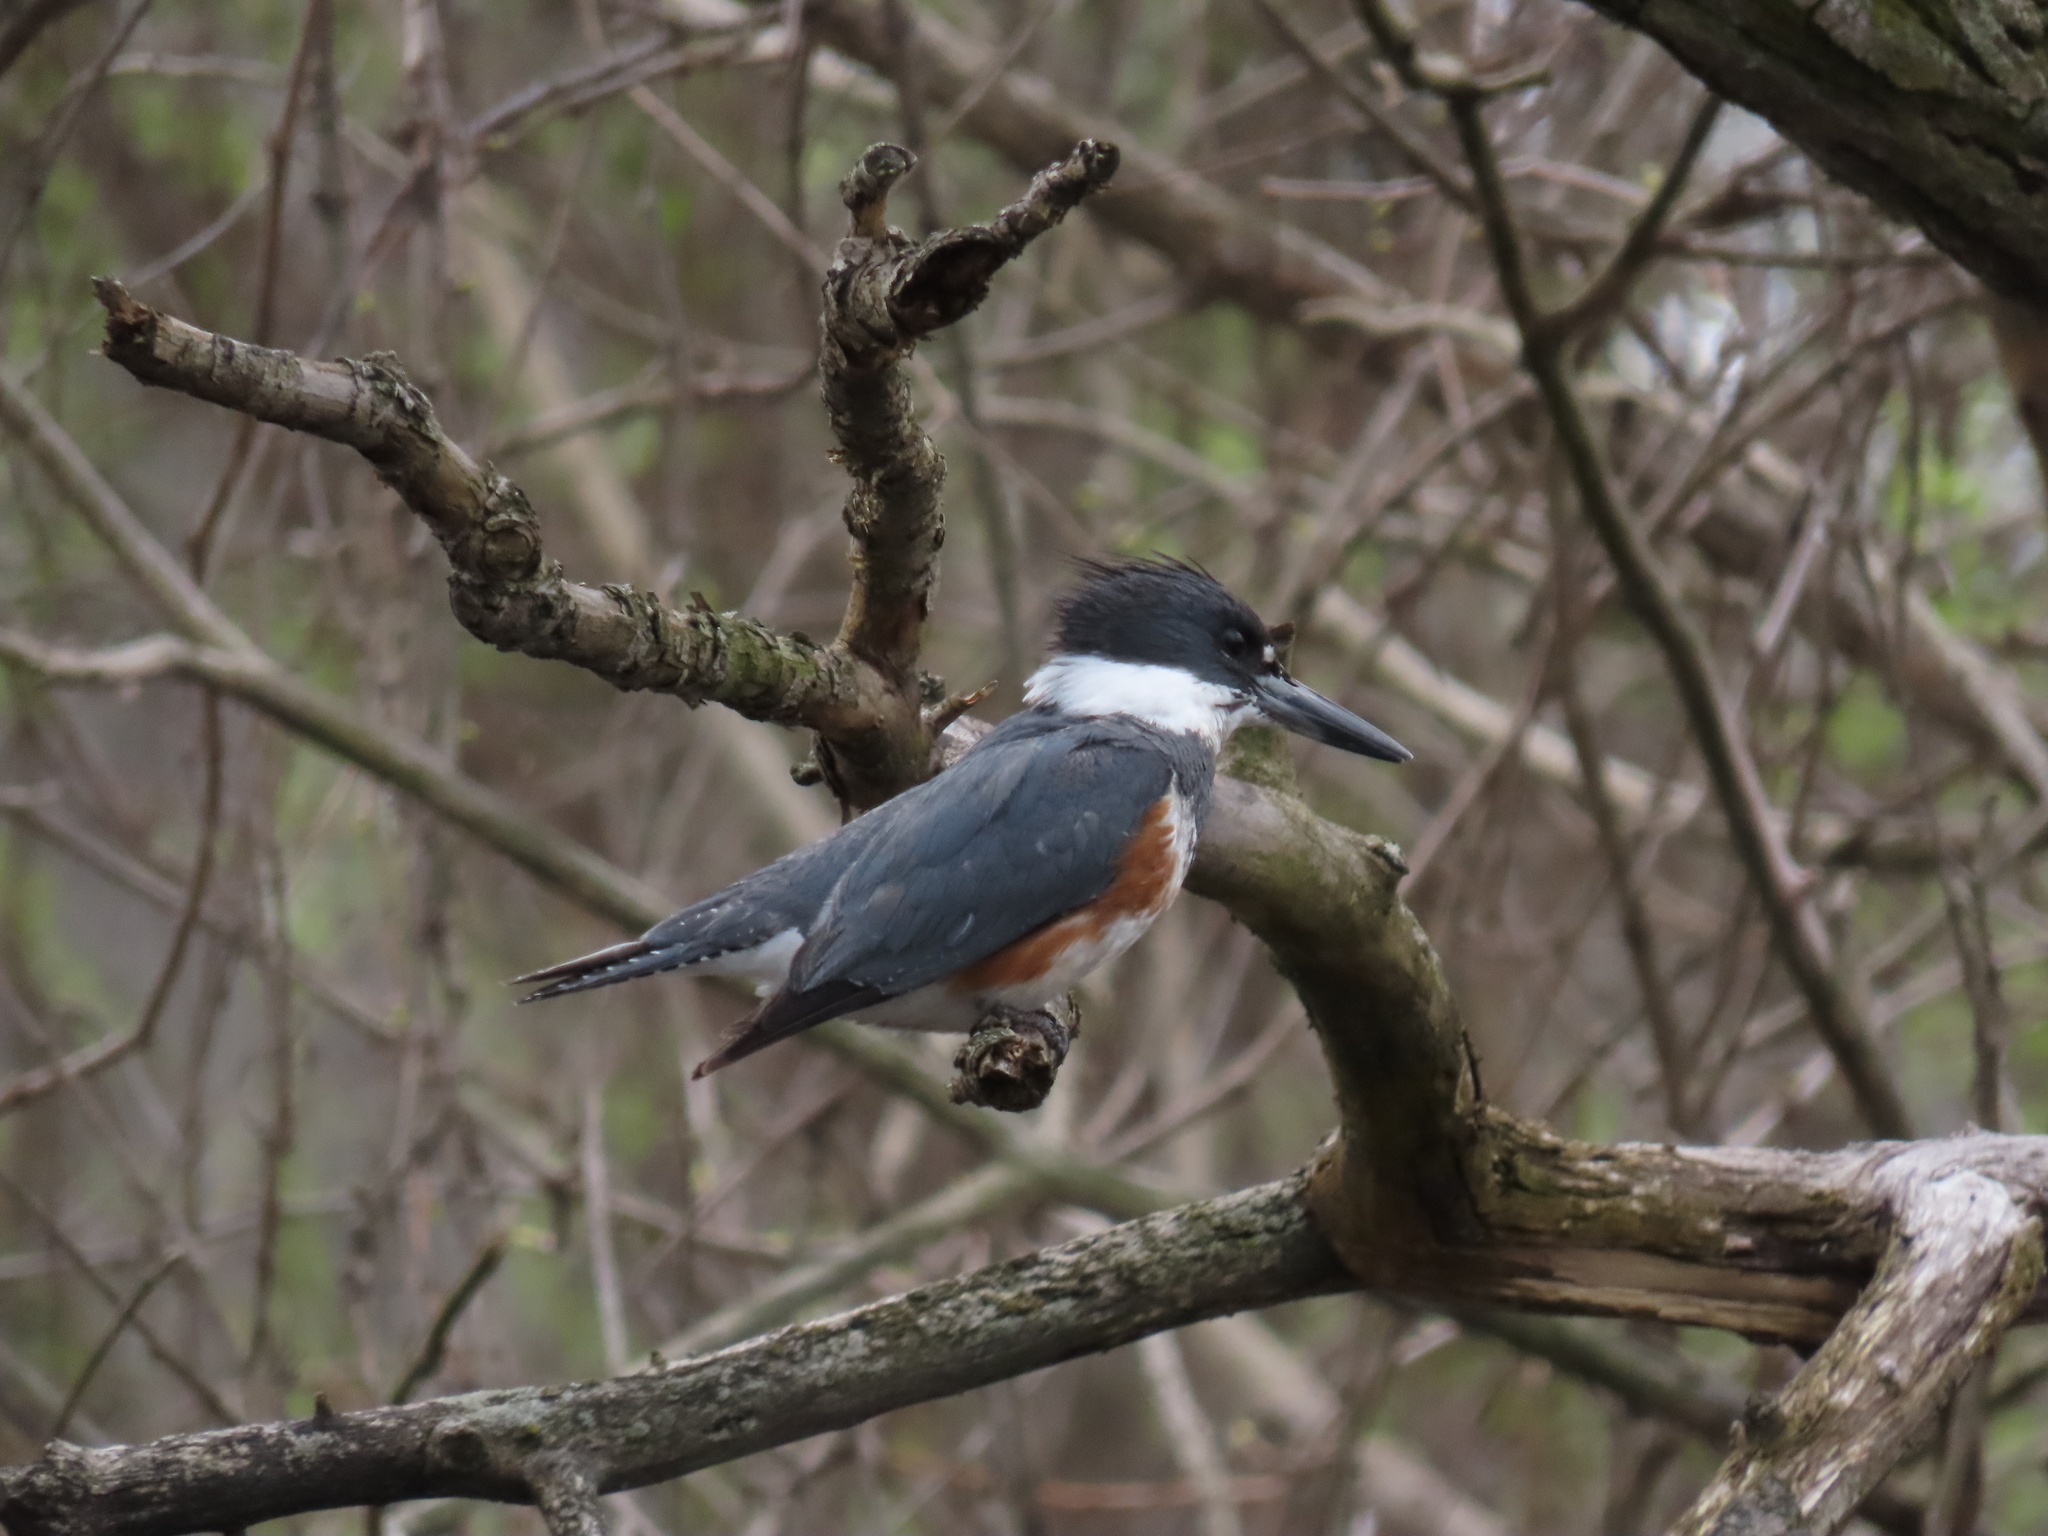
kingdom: Animalia
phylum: Chordata
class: Aves
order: Coraciiformes
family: Alcedinidae
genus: Megaceryle
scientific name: Megaceryle alcyon
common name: Belted kingfisher
